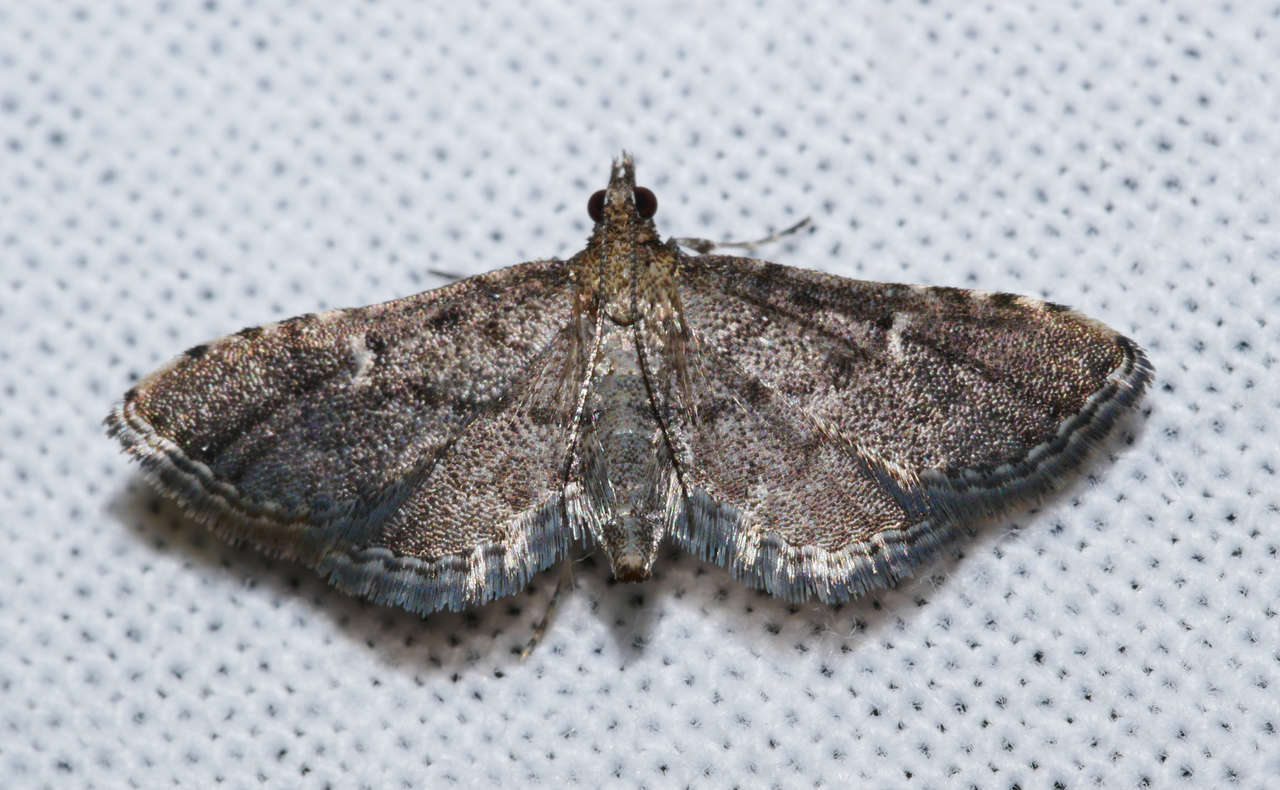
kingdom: Animalia
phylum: Arthropoda
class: Insecta
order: Lepidoptera
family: Crambidae
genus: Metasia
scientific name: Metasia capnochroa
